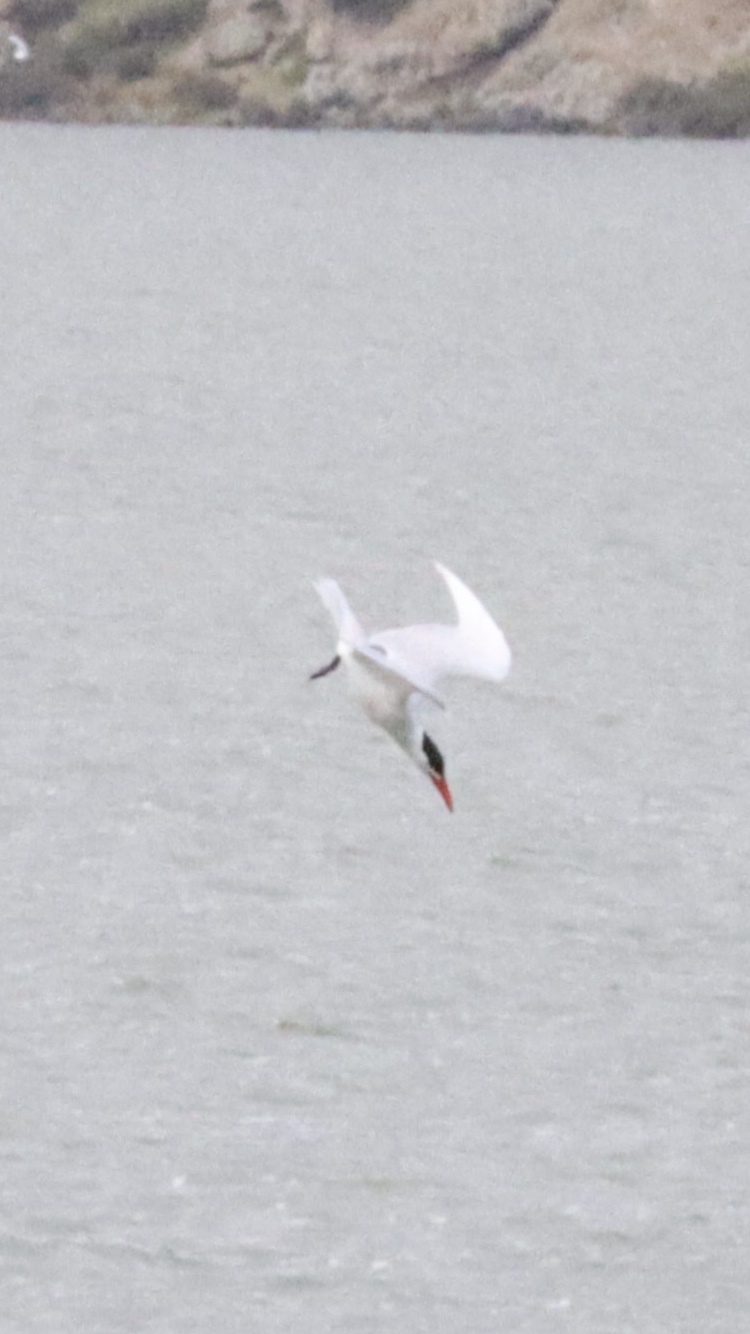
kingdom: Animalia
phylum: Chordata
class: Aves
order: Charadriiformes
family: Laridae
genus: Hydroprogne
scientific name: Hydroprogne caspia
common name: Caspian tern
